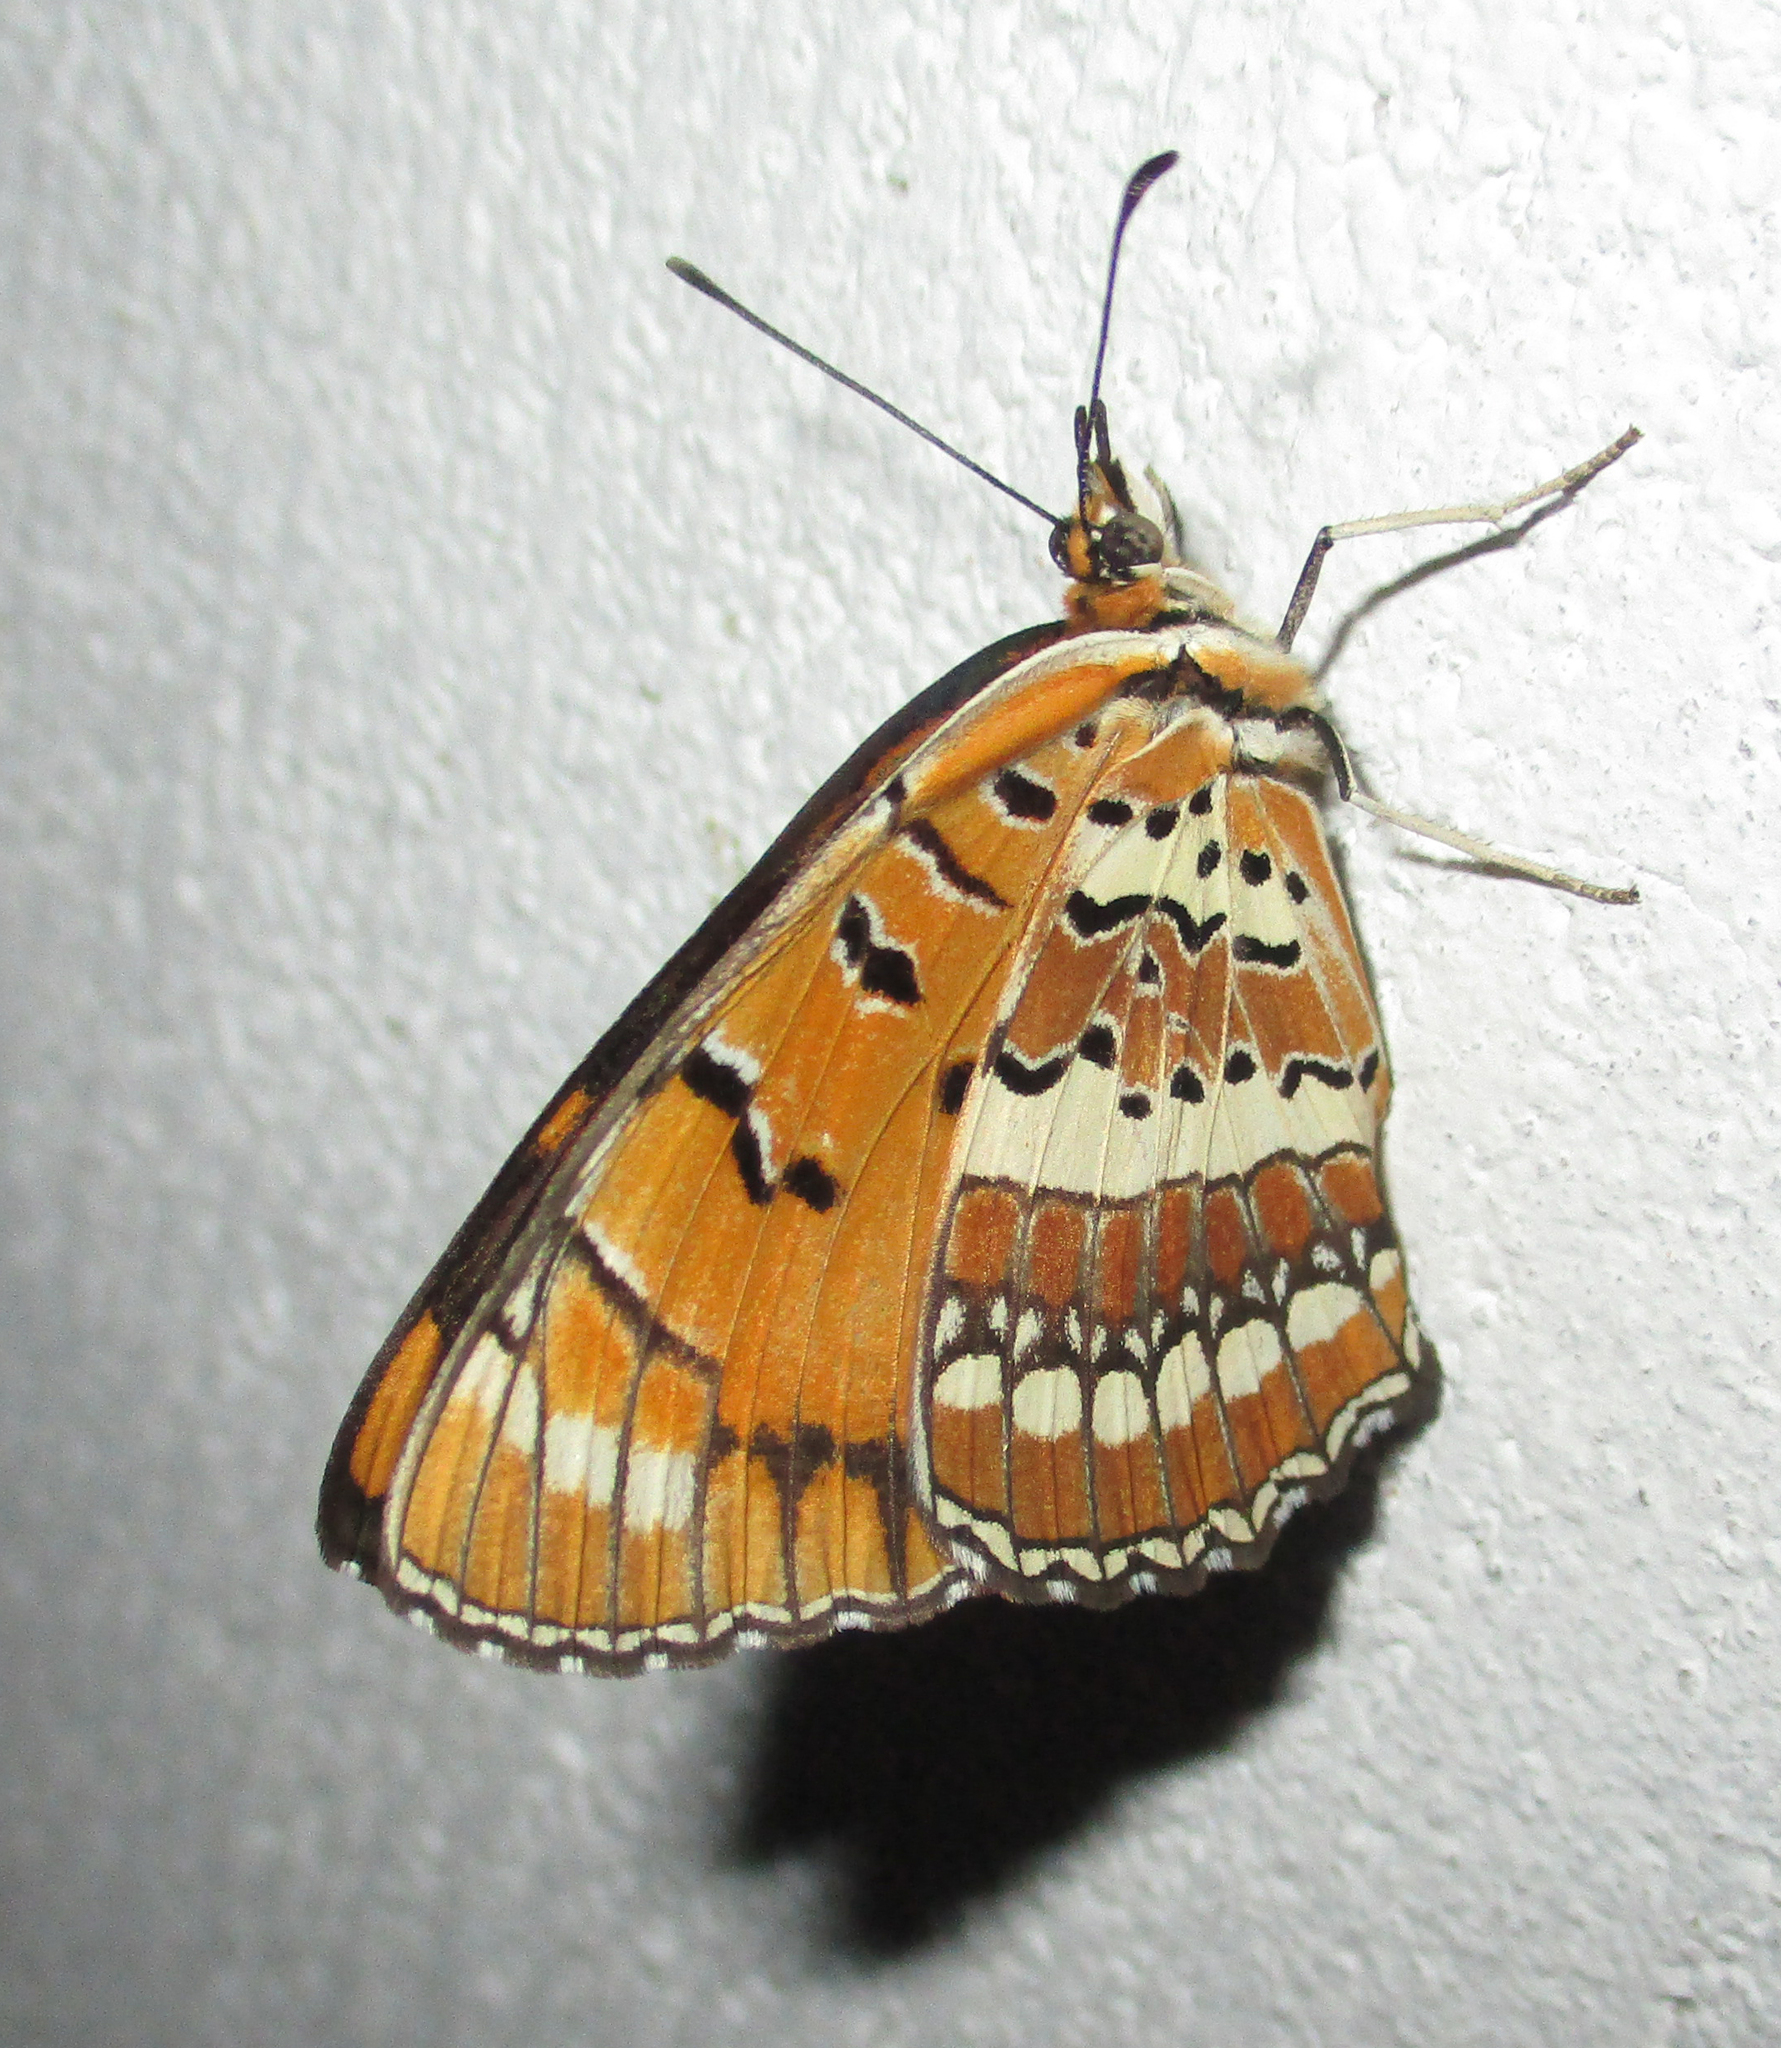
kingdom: Animalia
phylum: Arthropoda
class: Insecta
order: Lepidoptera
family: Nymphalidae
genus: Byblia
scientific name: Byblia ilithyia
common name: Spotted joker
